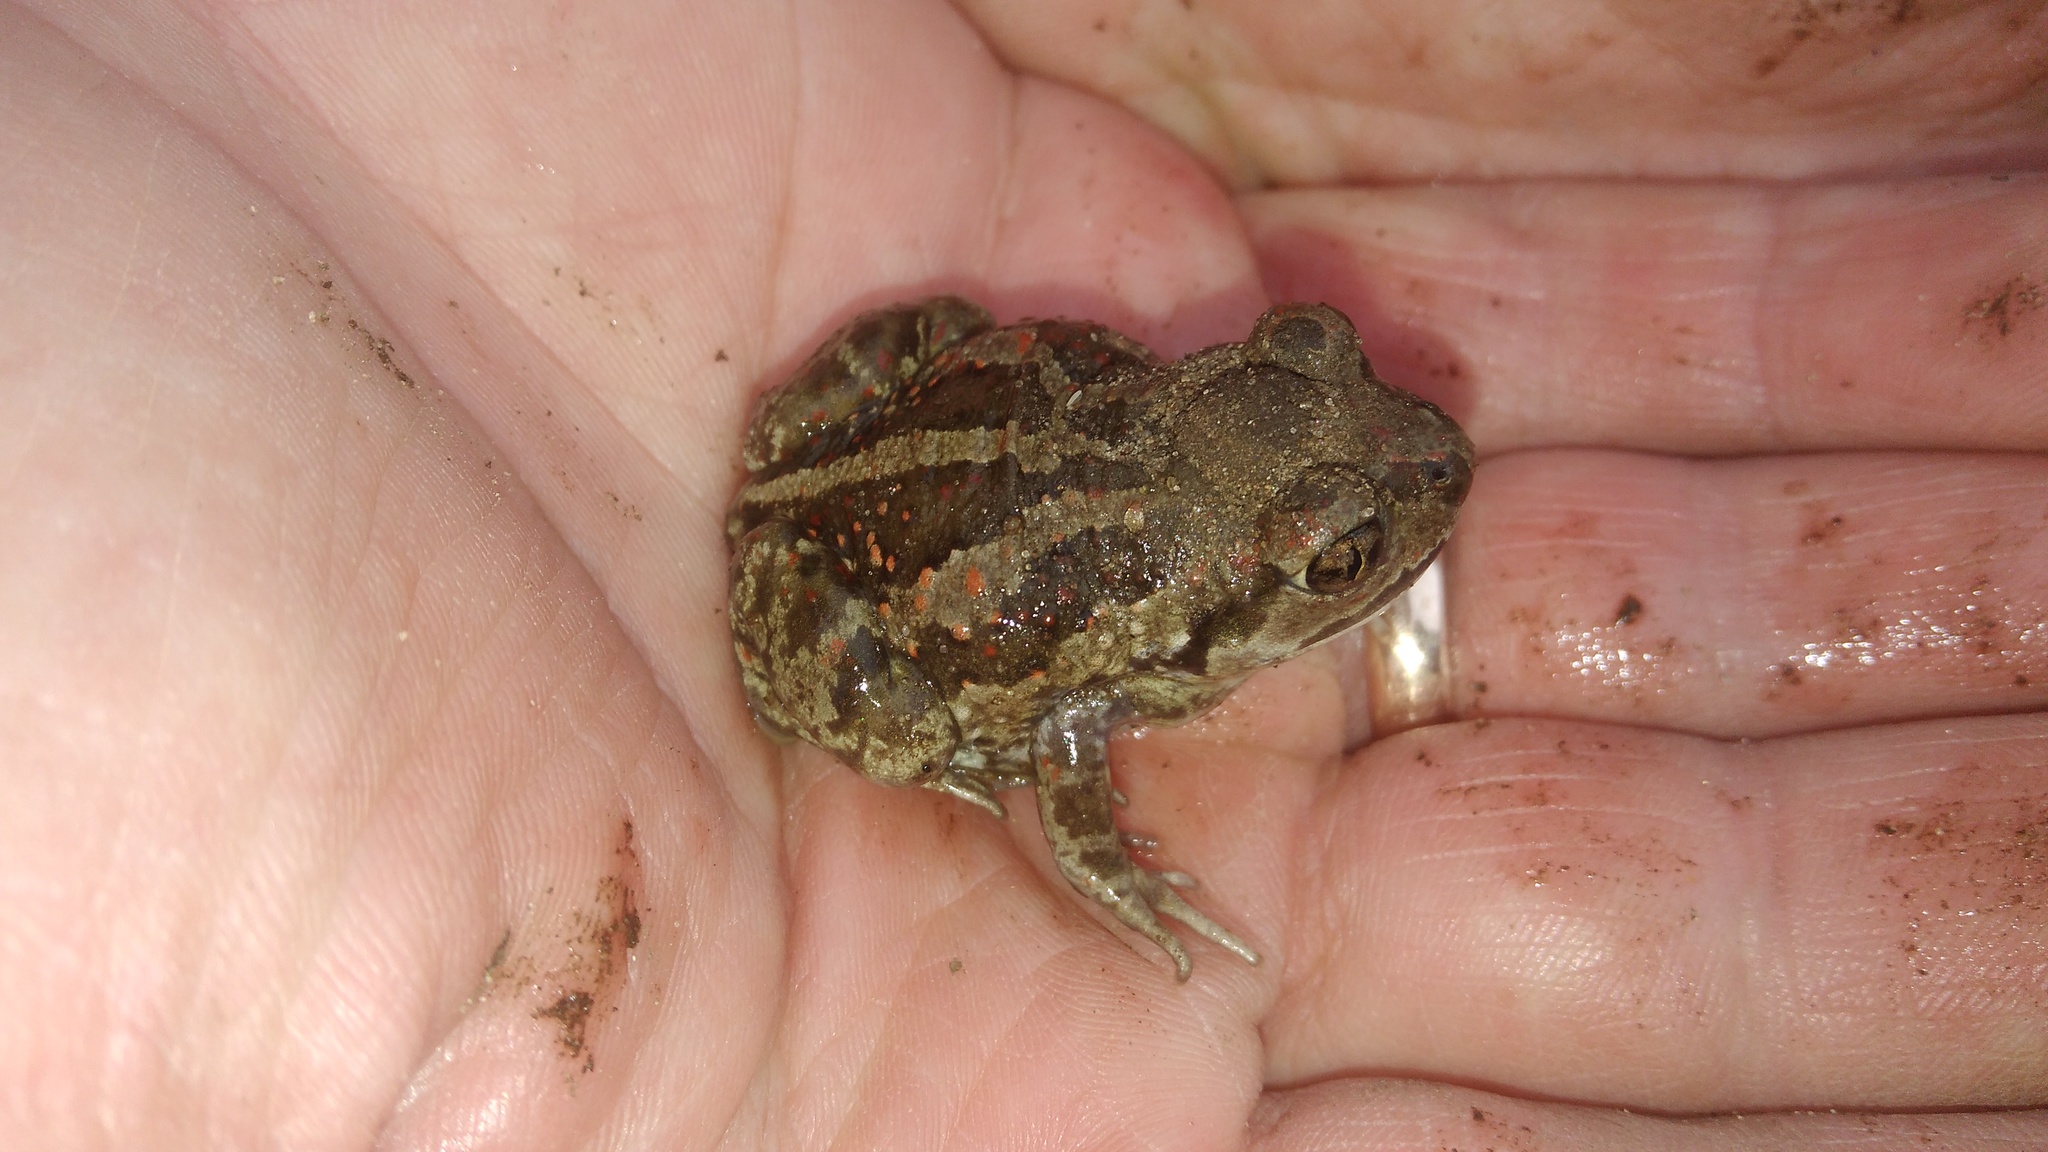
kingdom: Animalia
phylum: Chordata
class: Amphibia
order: Anura
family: Pelobatidae
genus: Pelobates
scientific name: Pelobates fuscus
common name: Common eurasian spadefoot toad
